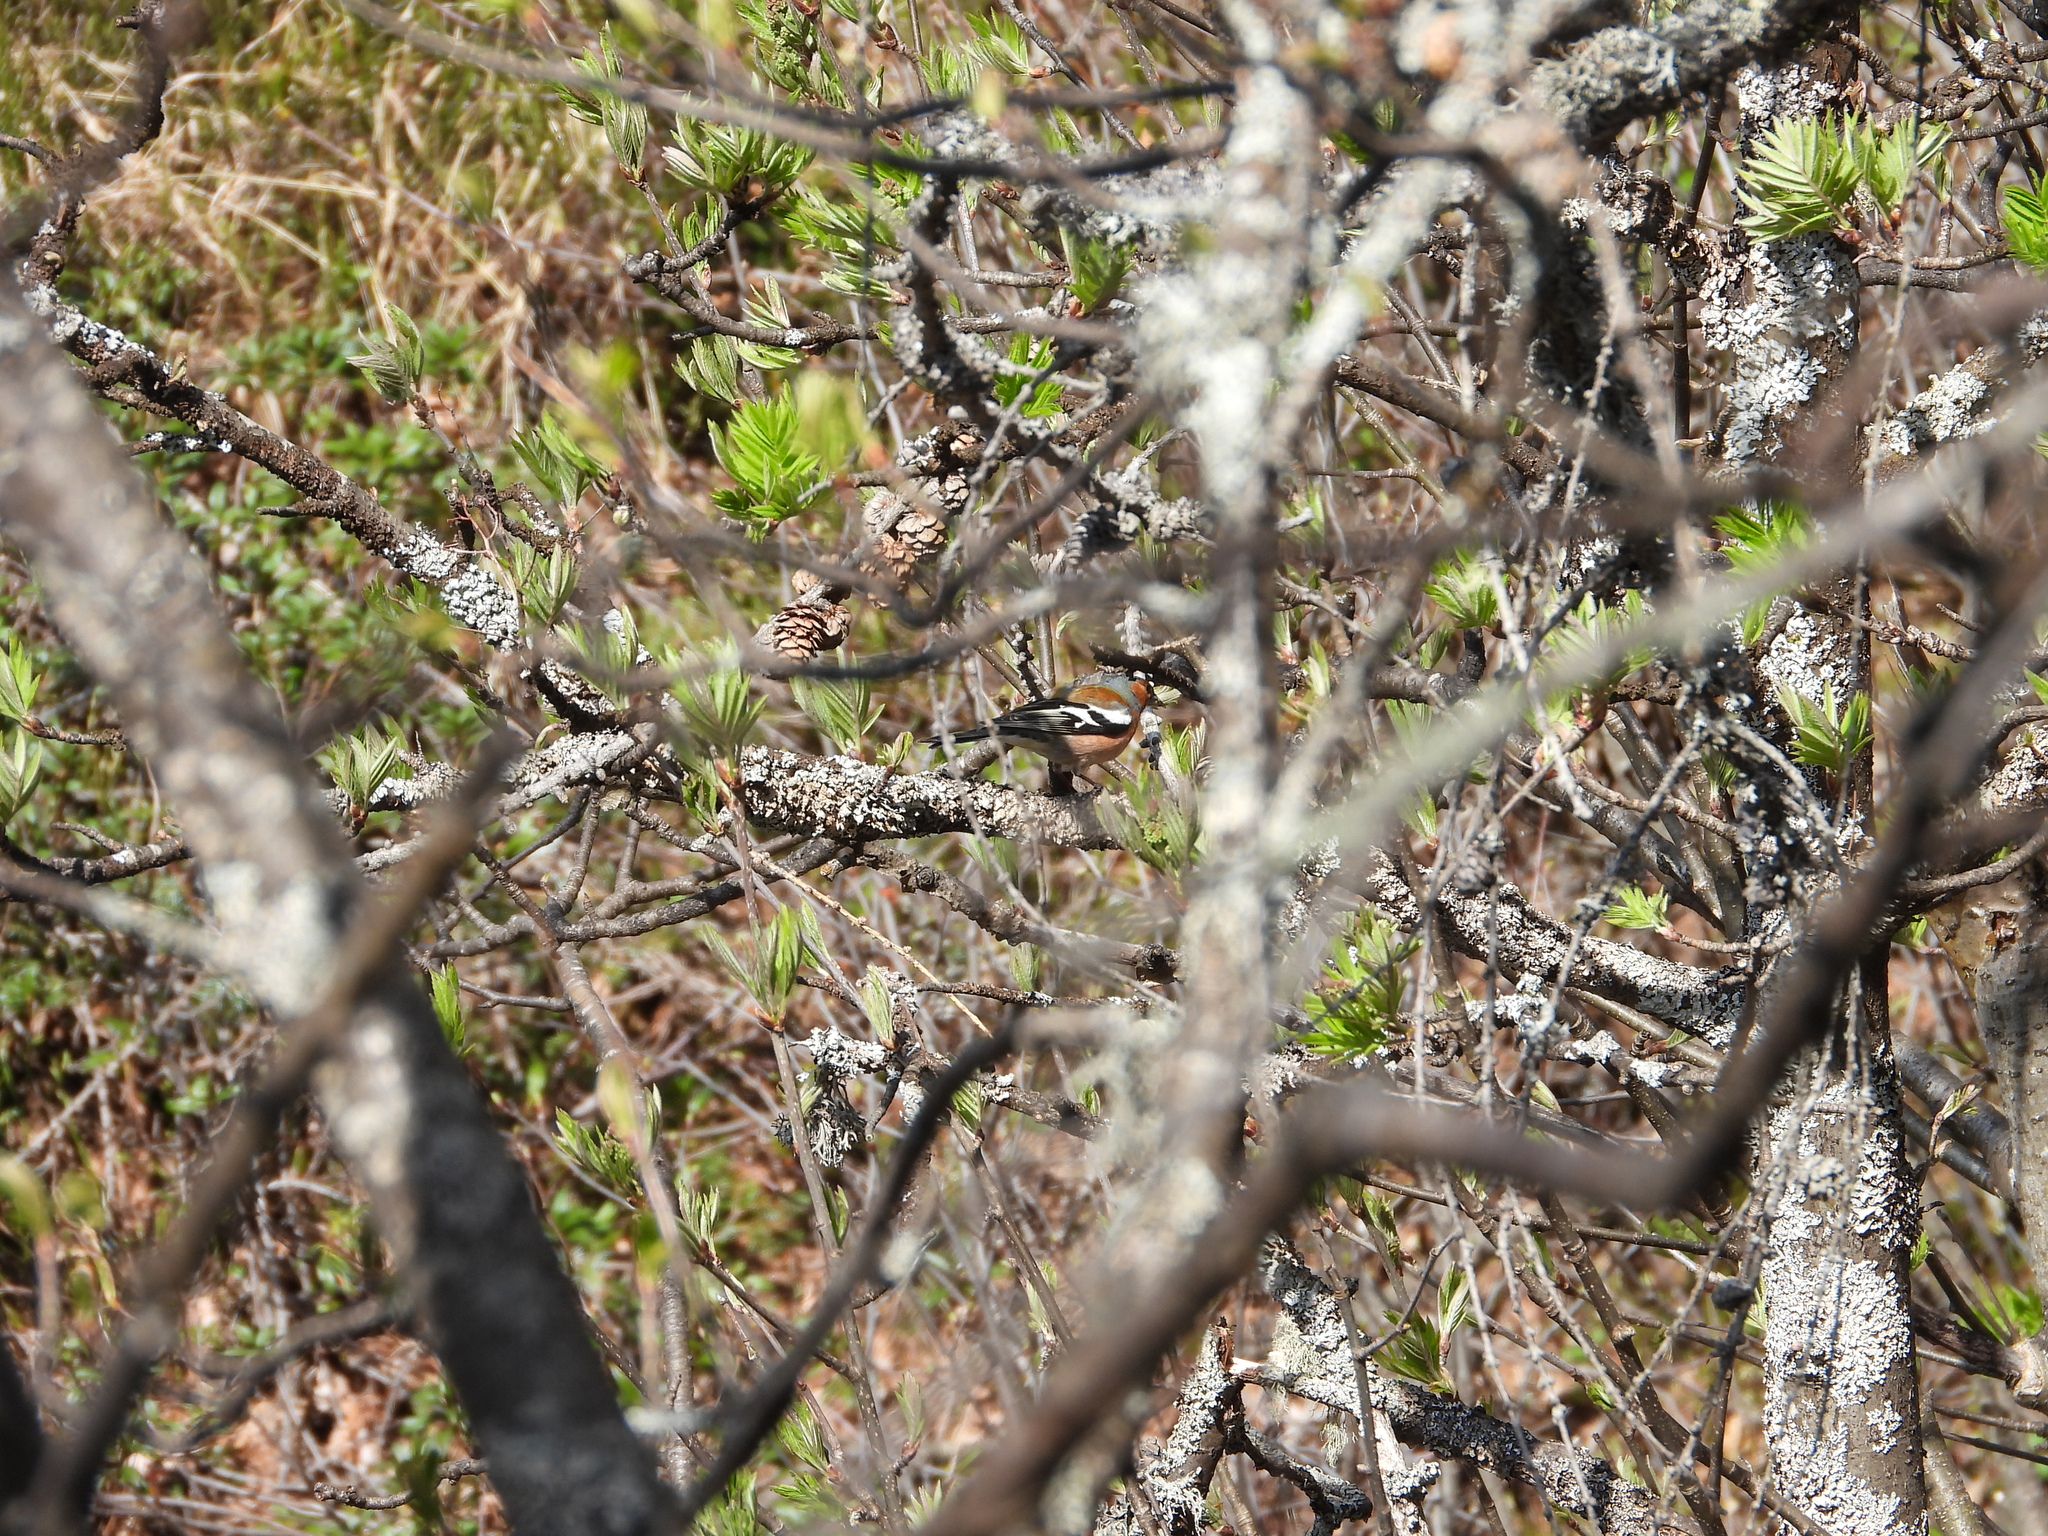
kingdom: Animalia
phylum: Chordata
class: Aves
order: Passeriformes
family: Fringillidae
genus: Fringilla
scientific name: Fringilla coelebs
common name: Common chaffinch
